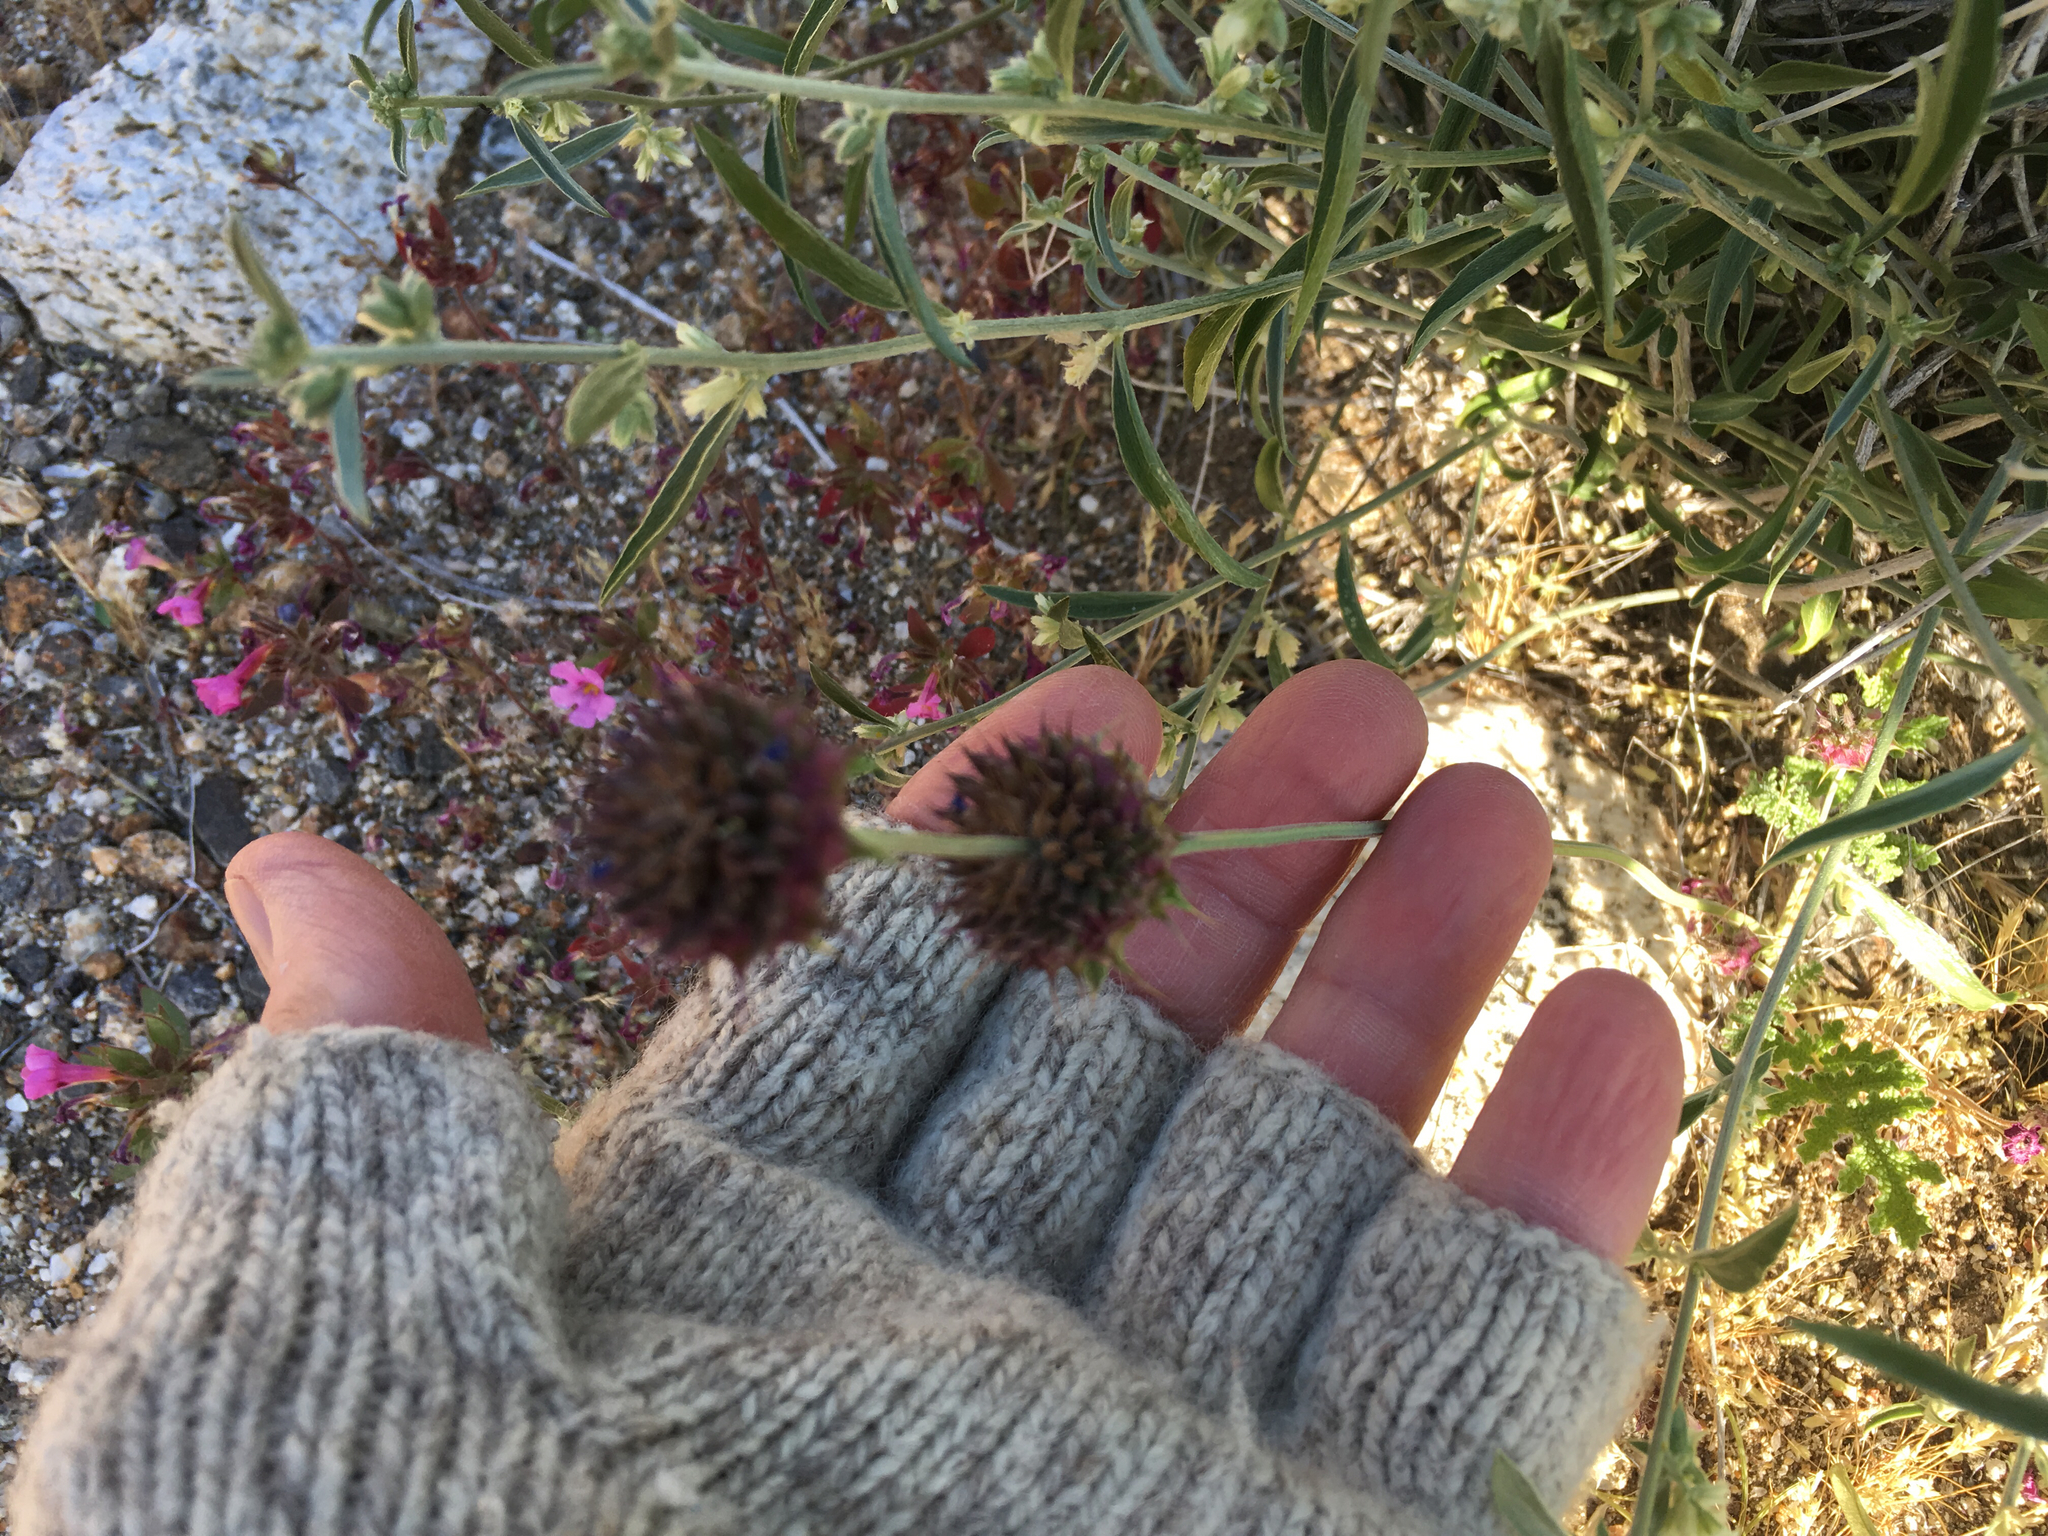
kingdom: Plantae
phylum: Tracheophyta
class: Magnoliopsida
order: Lamiales
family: Lamiaceae
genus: Salvia
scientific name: Salvia columbariae
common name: Chia
